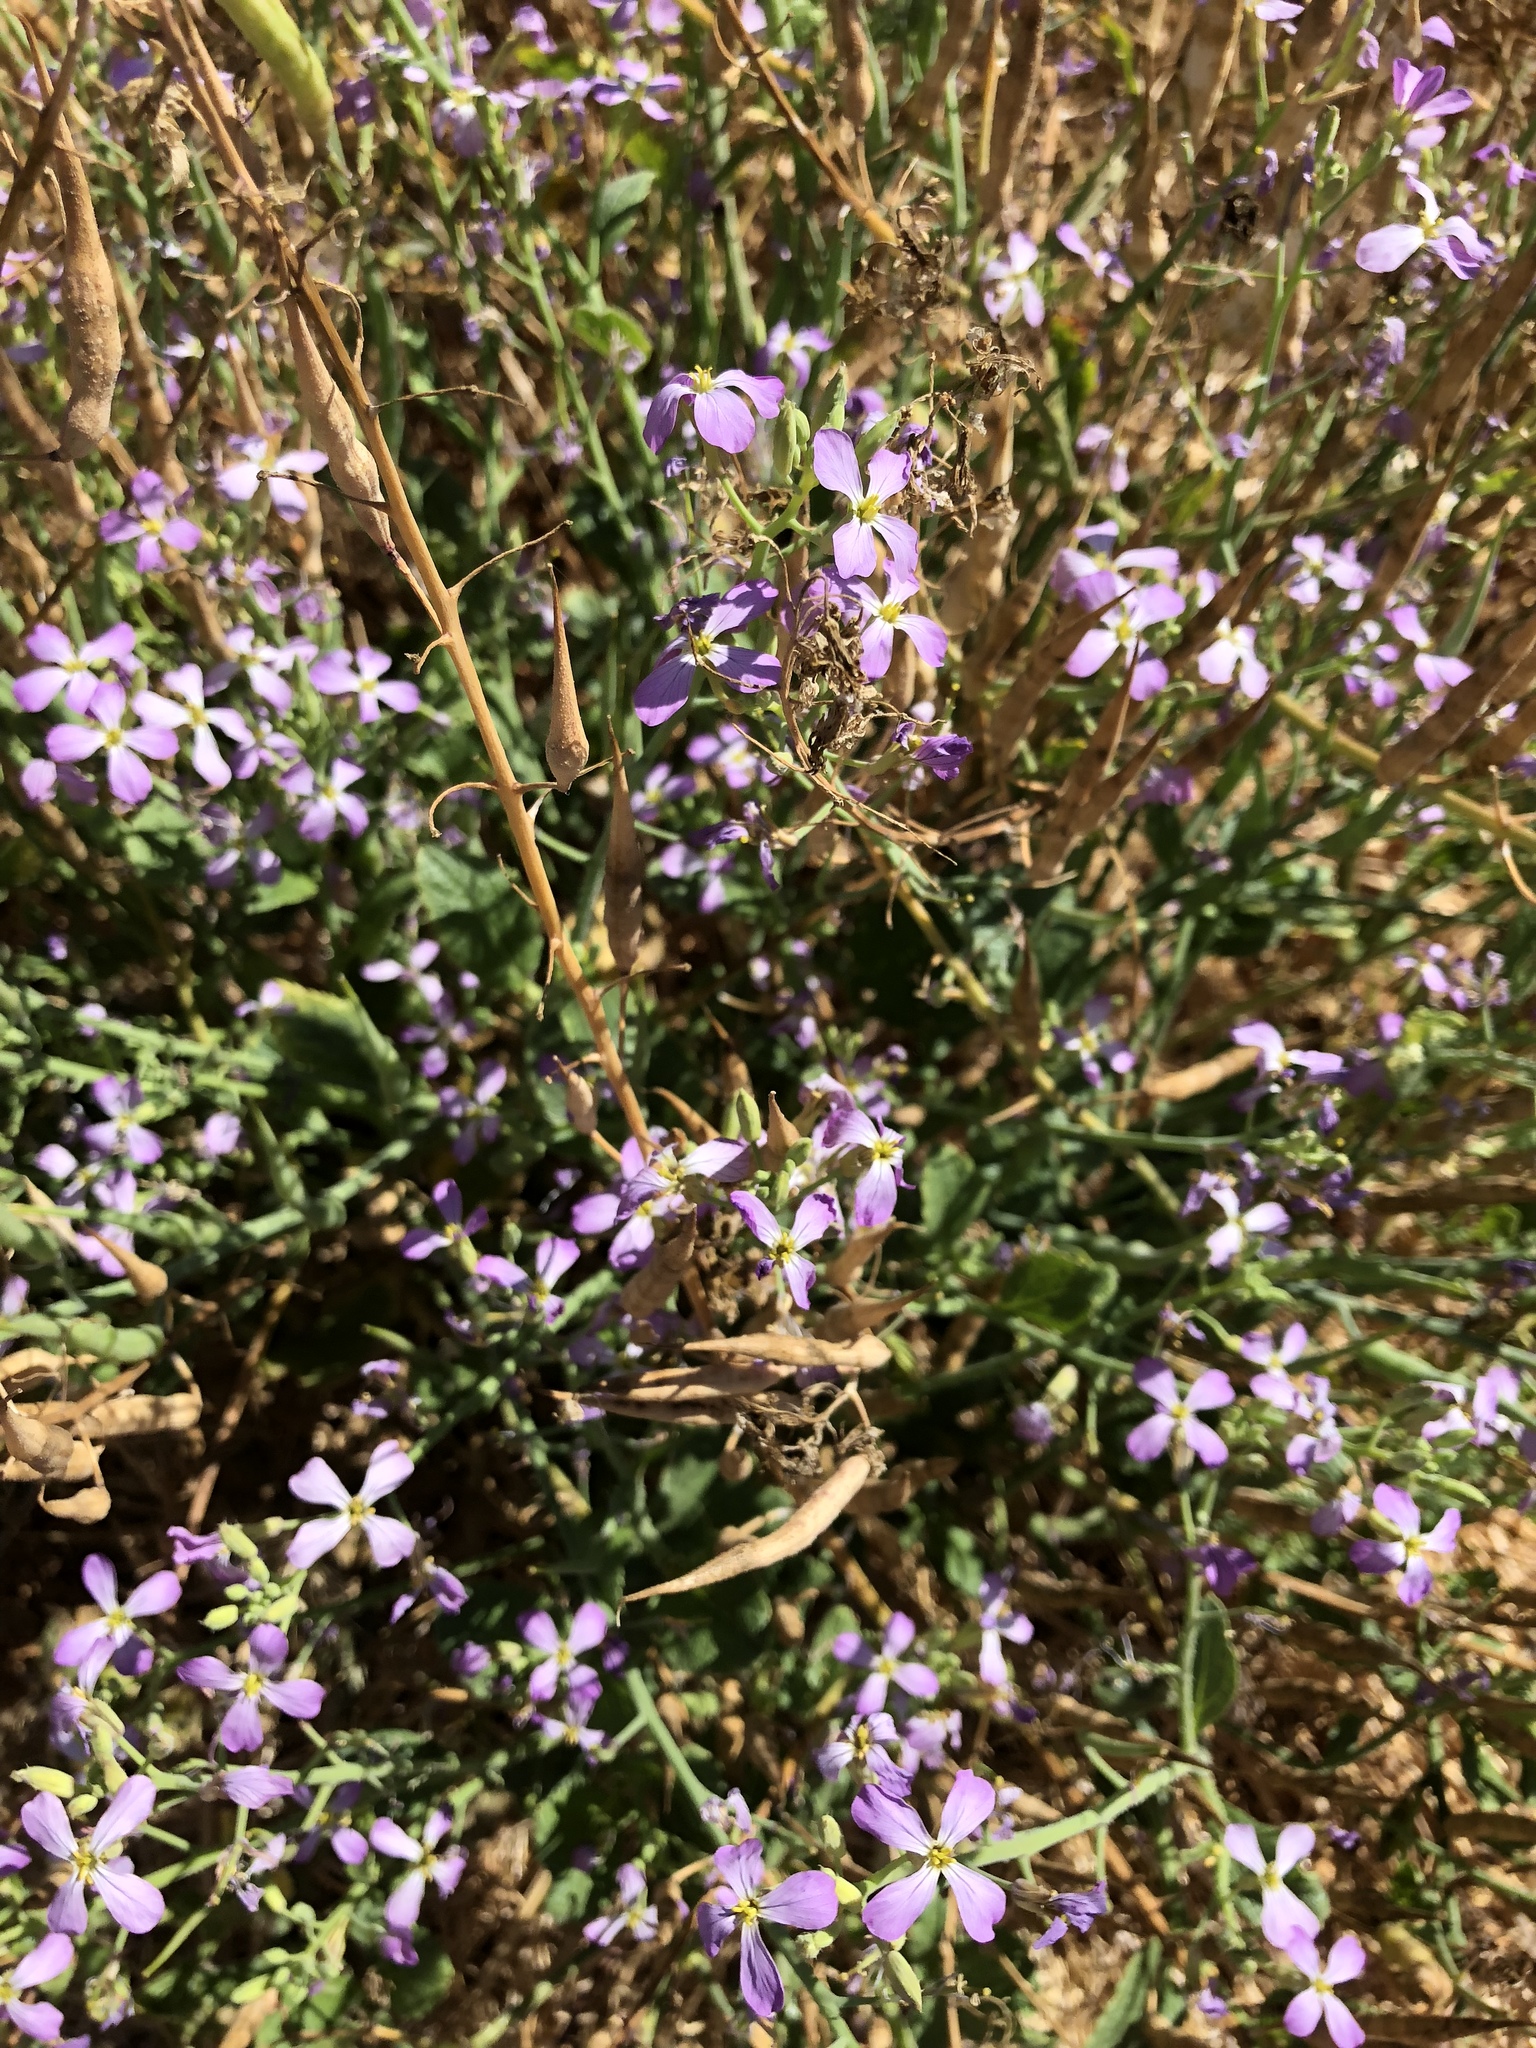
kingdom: Plantae
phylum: Tracheophyta
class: Magnoliopsida
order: Brassicales
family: Brassicaceae
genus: Raphanus
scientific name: Raphanus sativus
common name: Cultivated radish
